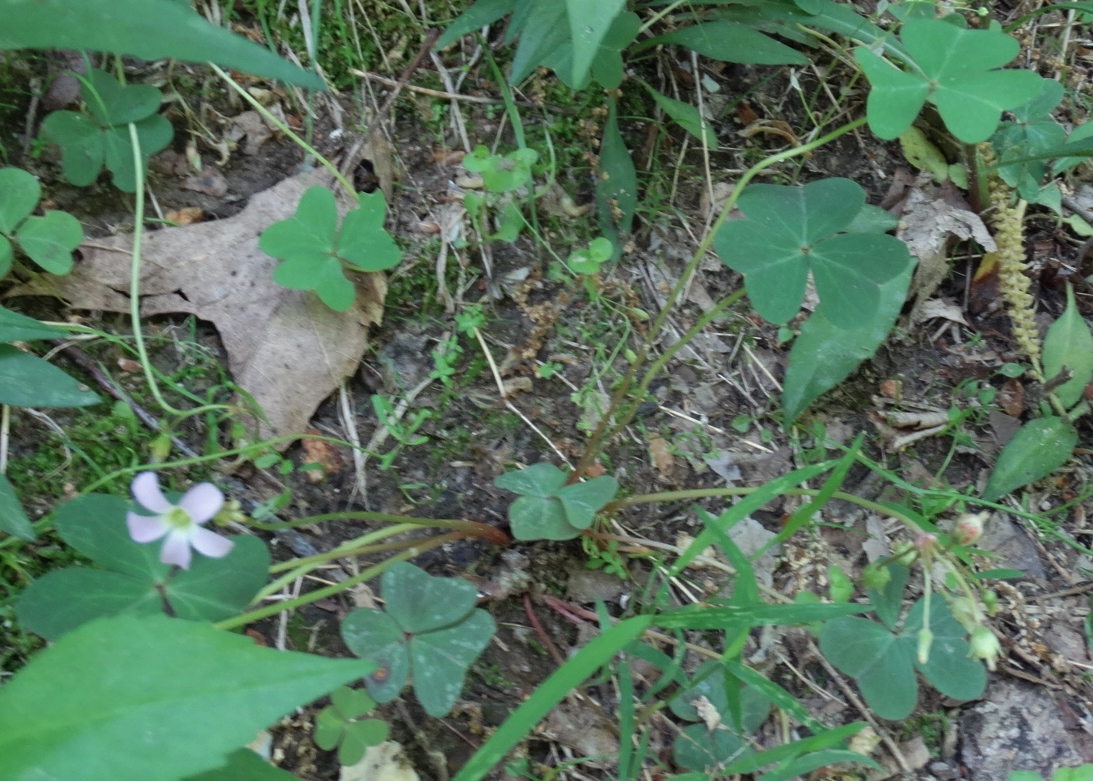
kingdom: Plantae
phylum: Tracheophyta
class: Magnoliopsida
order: Oxalidales
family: Oxalidaceae
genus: Oxalis
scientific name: Oxalis violacea
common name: Violet wood-sorrel
